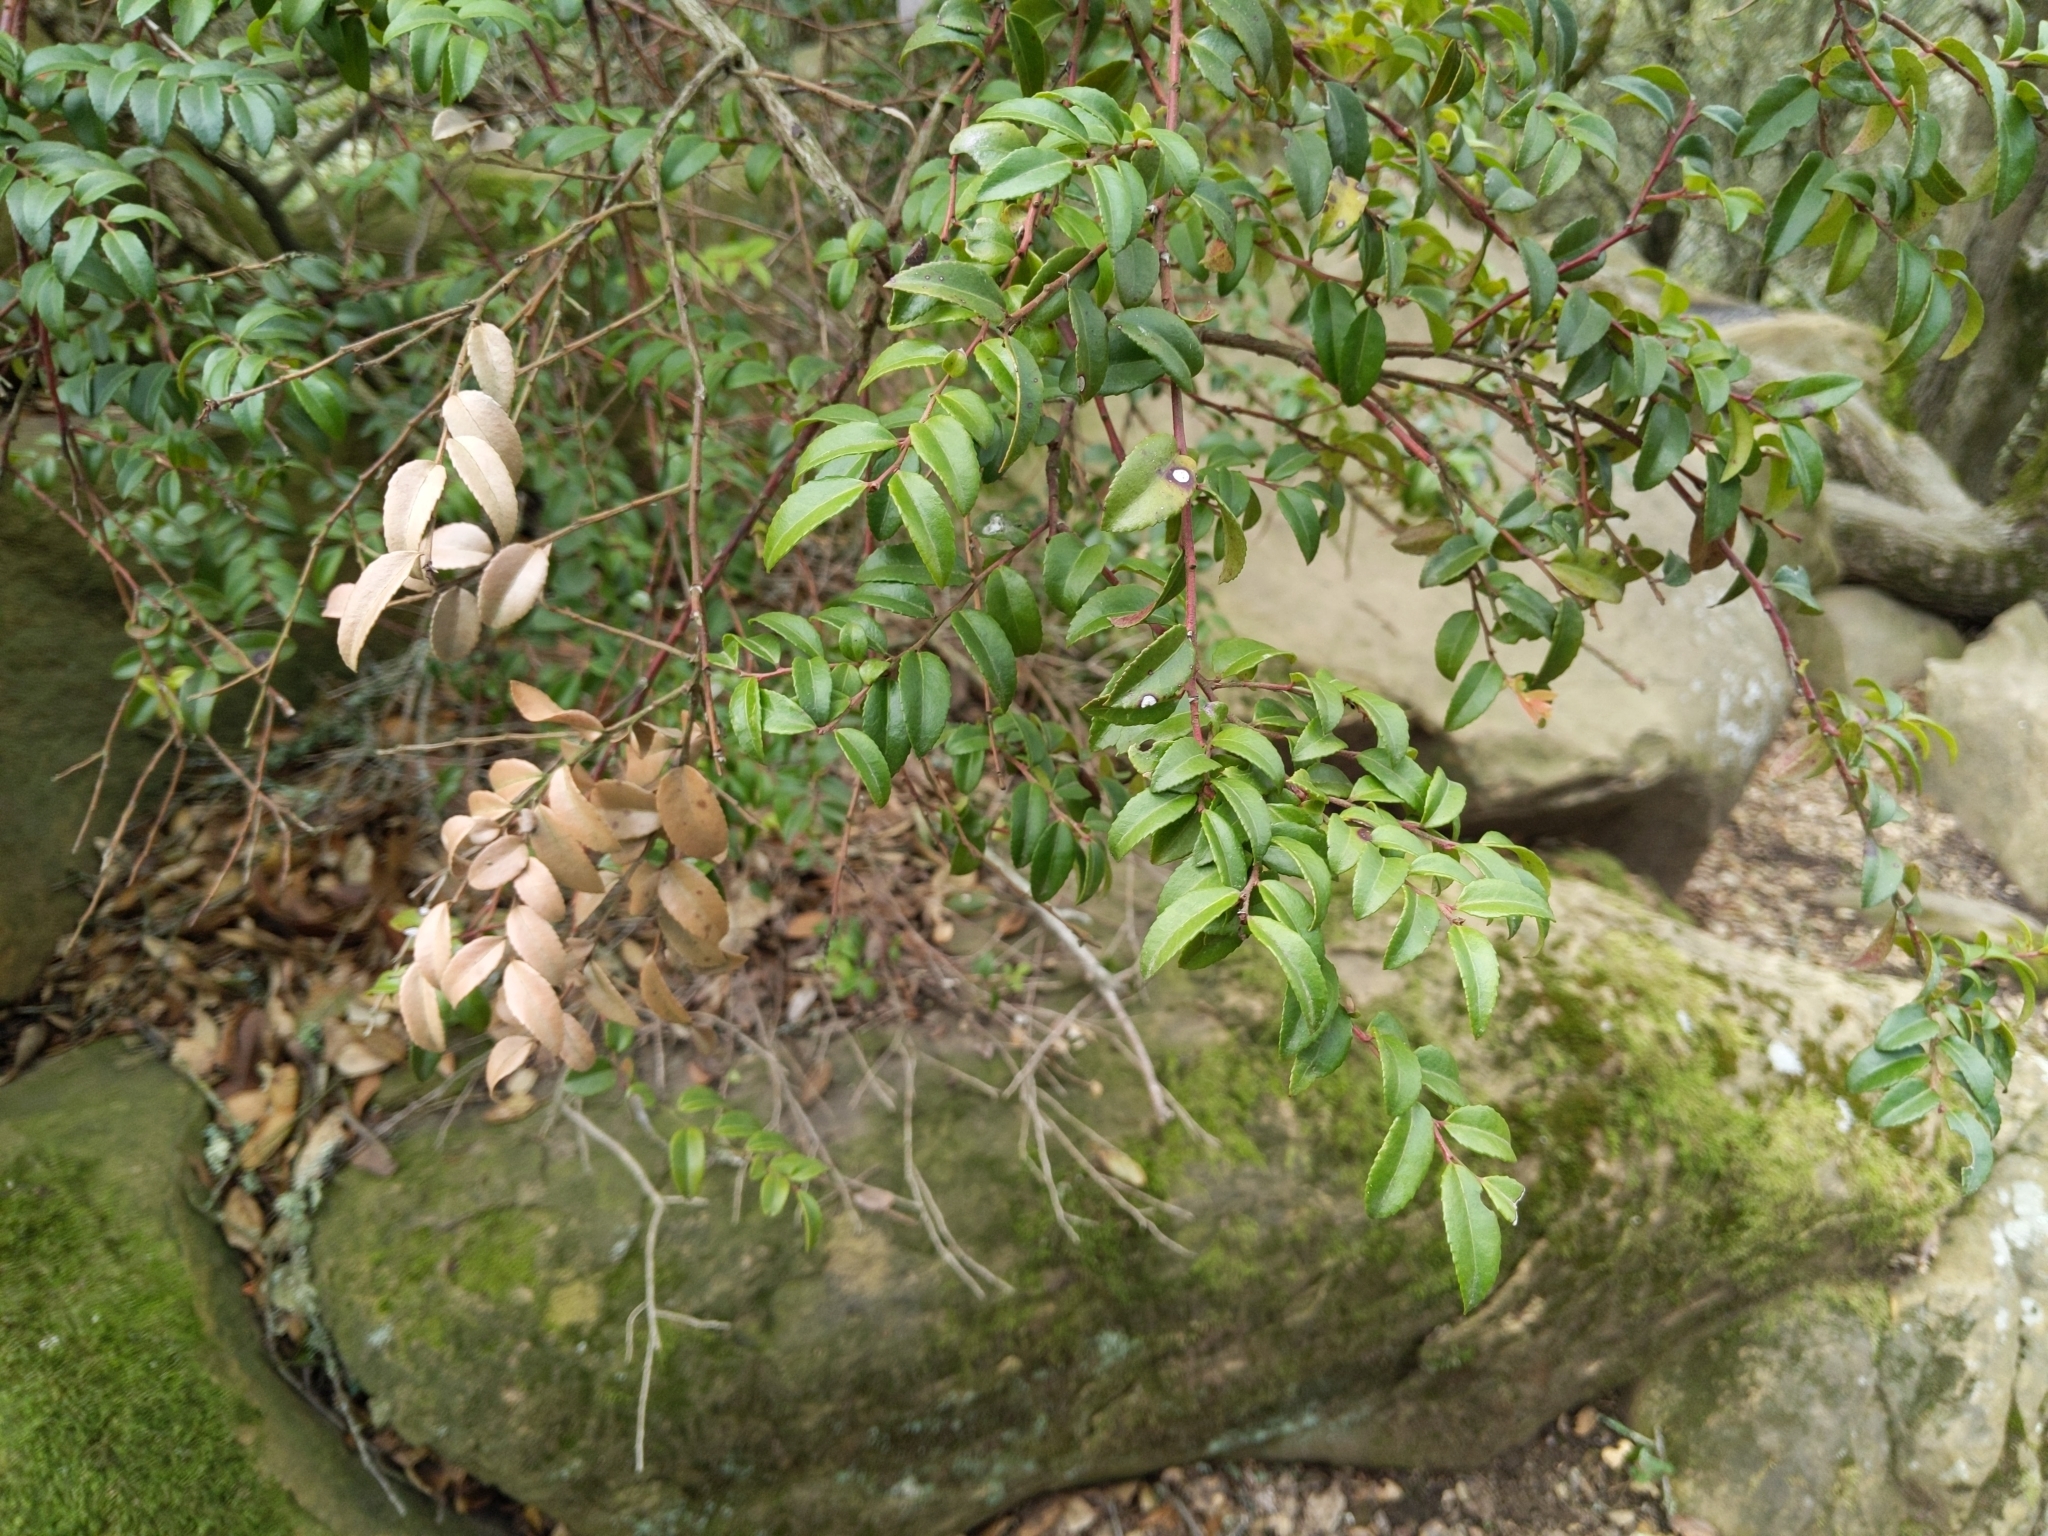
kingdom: Plantae
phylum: Tracheophyta
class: Magnoliopsida
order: Ericales
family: Ericaceae
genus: Vaccinium
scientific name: Vaccinium ovatum
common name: California-huckleberry
